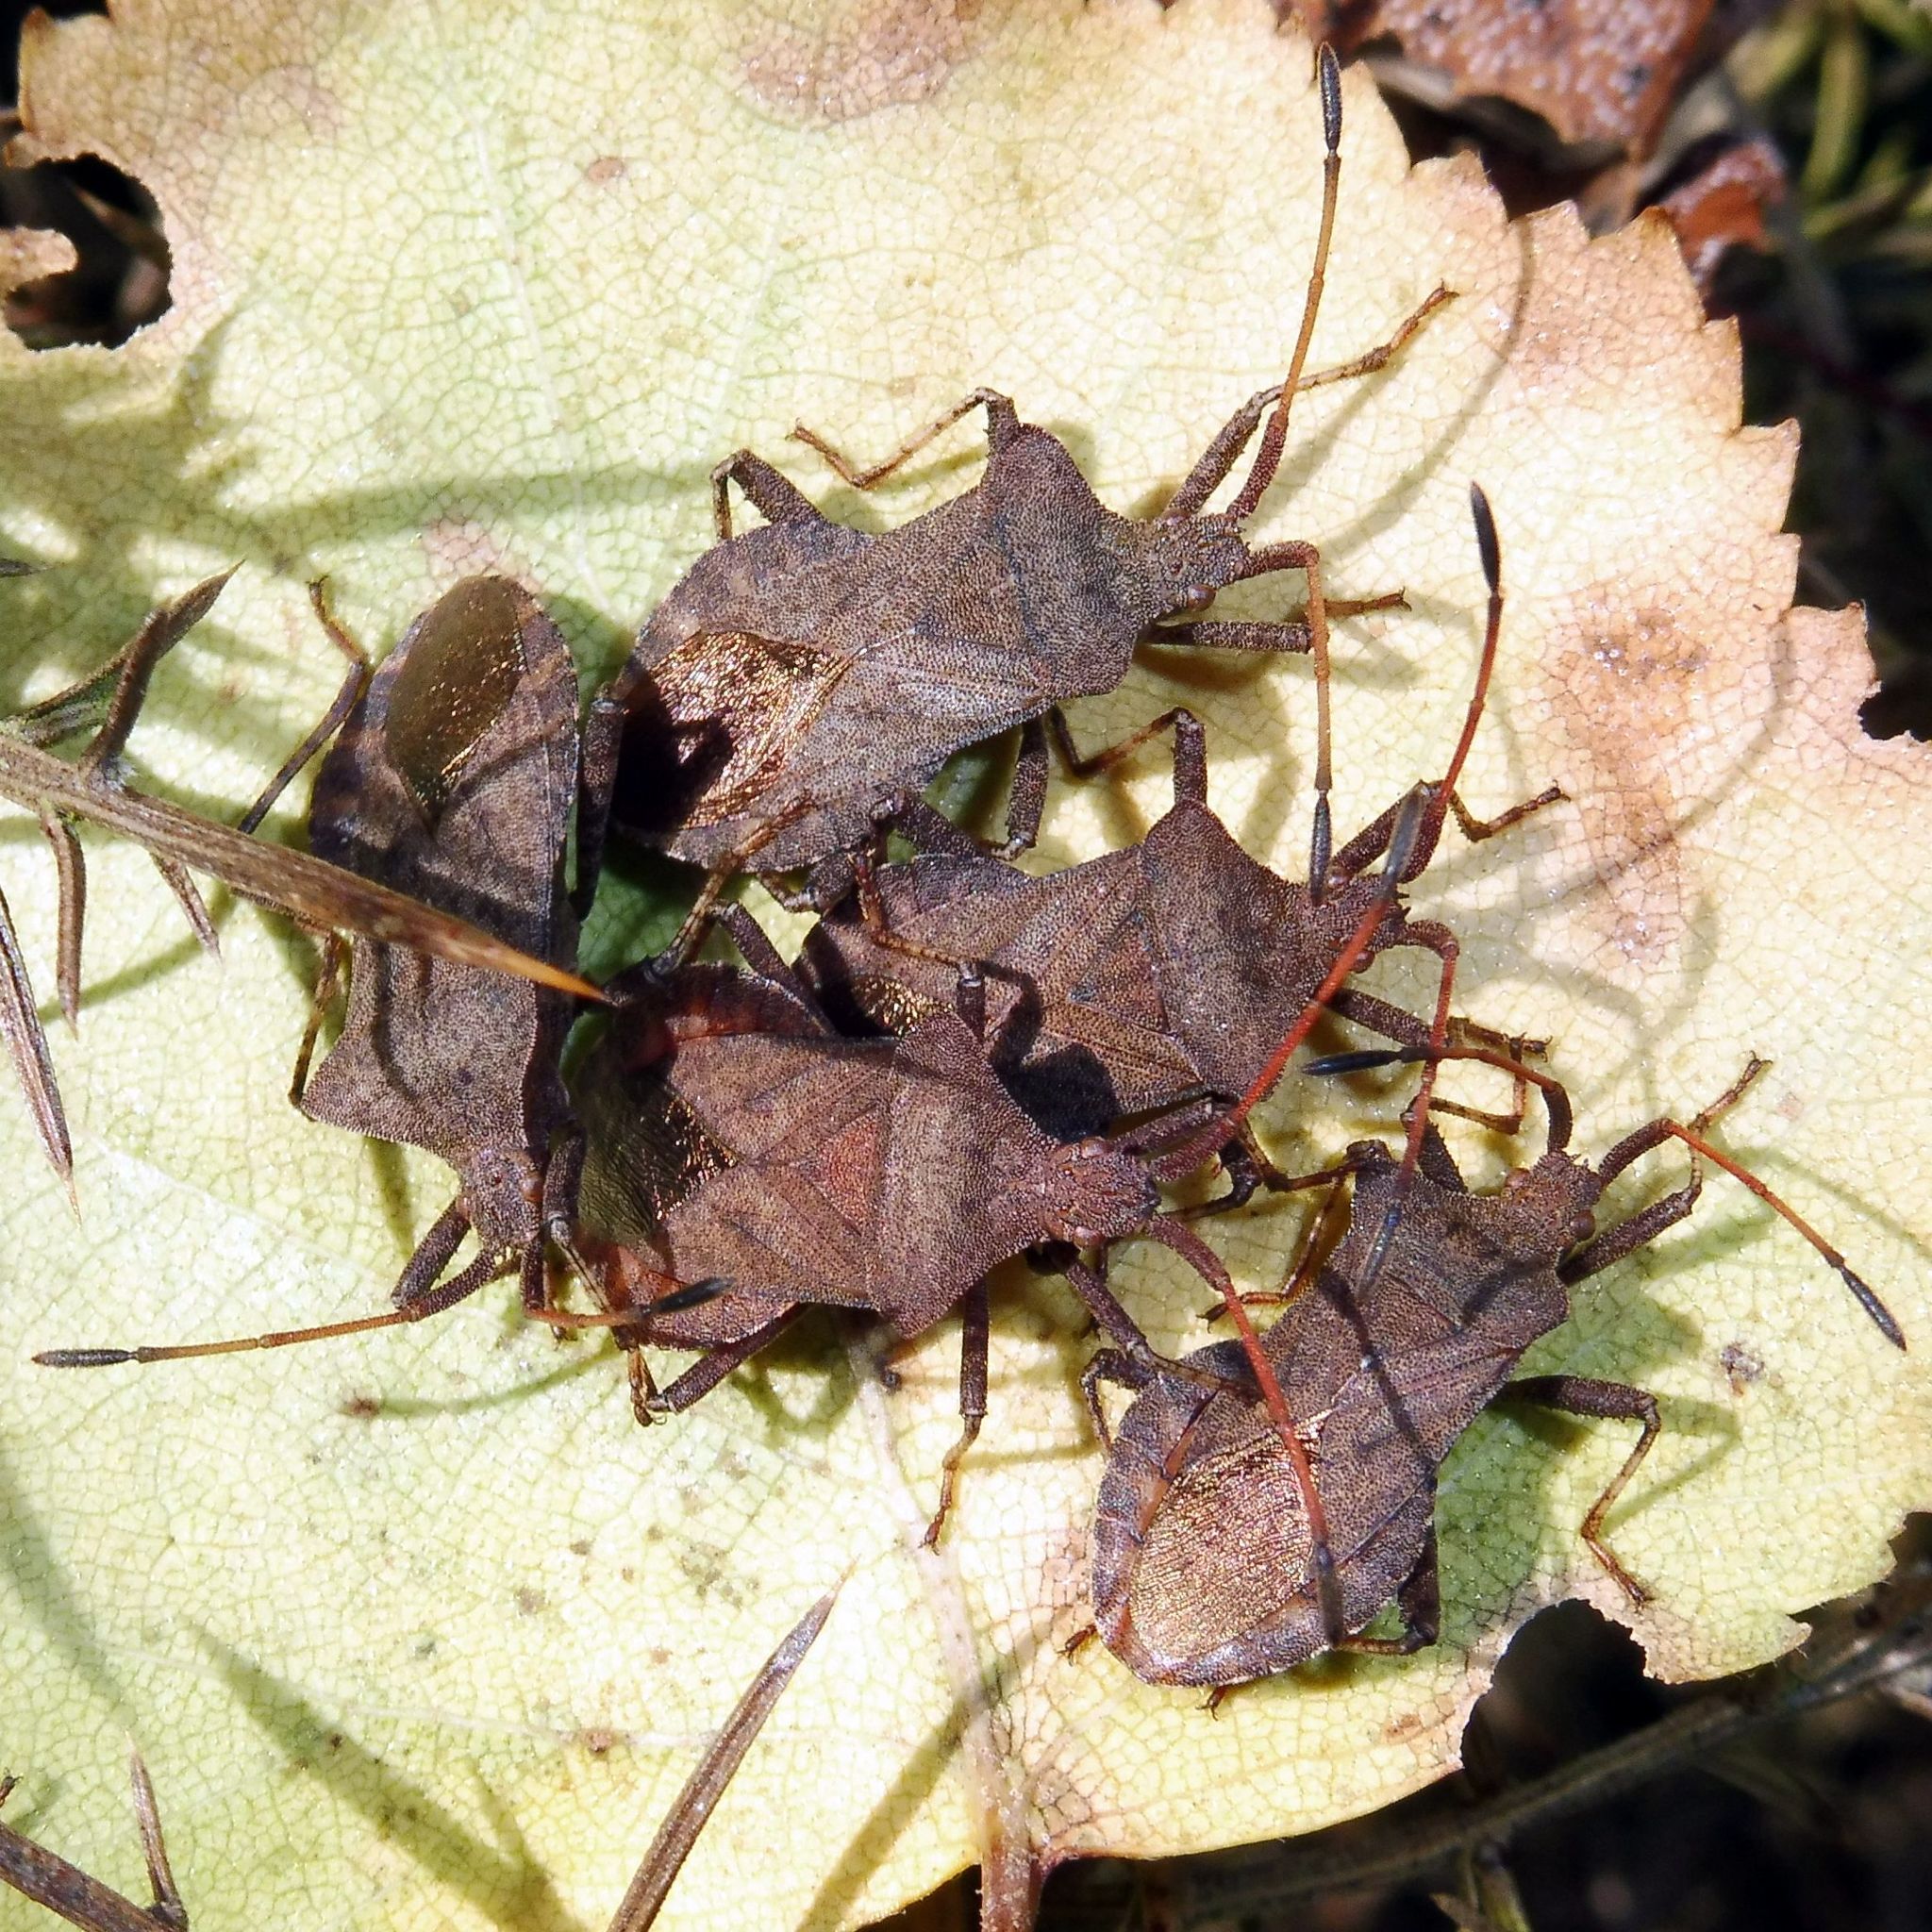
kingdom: Animalia
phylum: Arthropoda
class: Insecta
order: Hemiptera
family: Coreidae
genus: Coreus
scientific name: Coreus marginatus
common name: Dock bug
